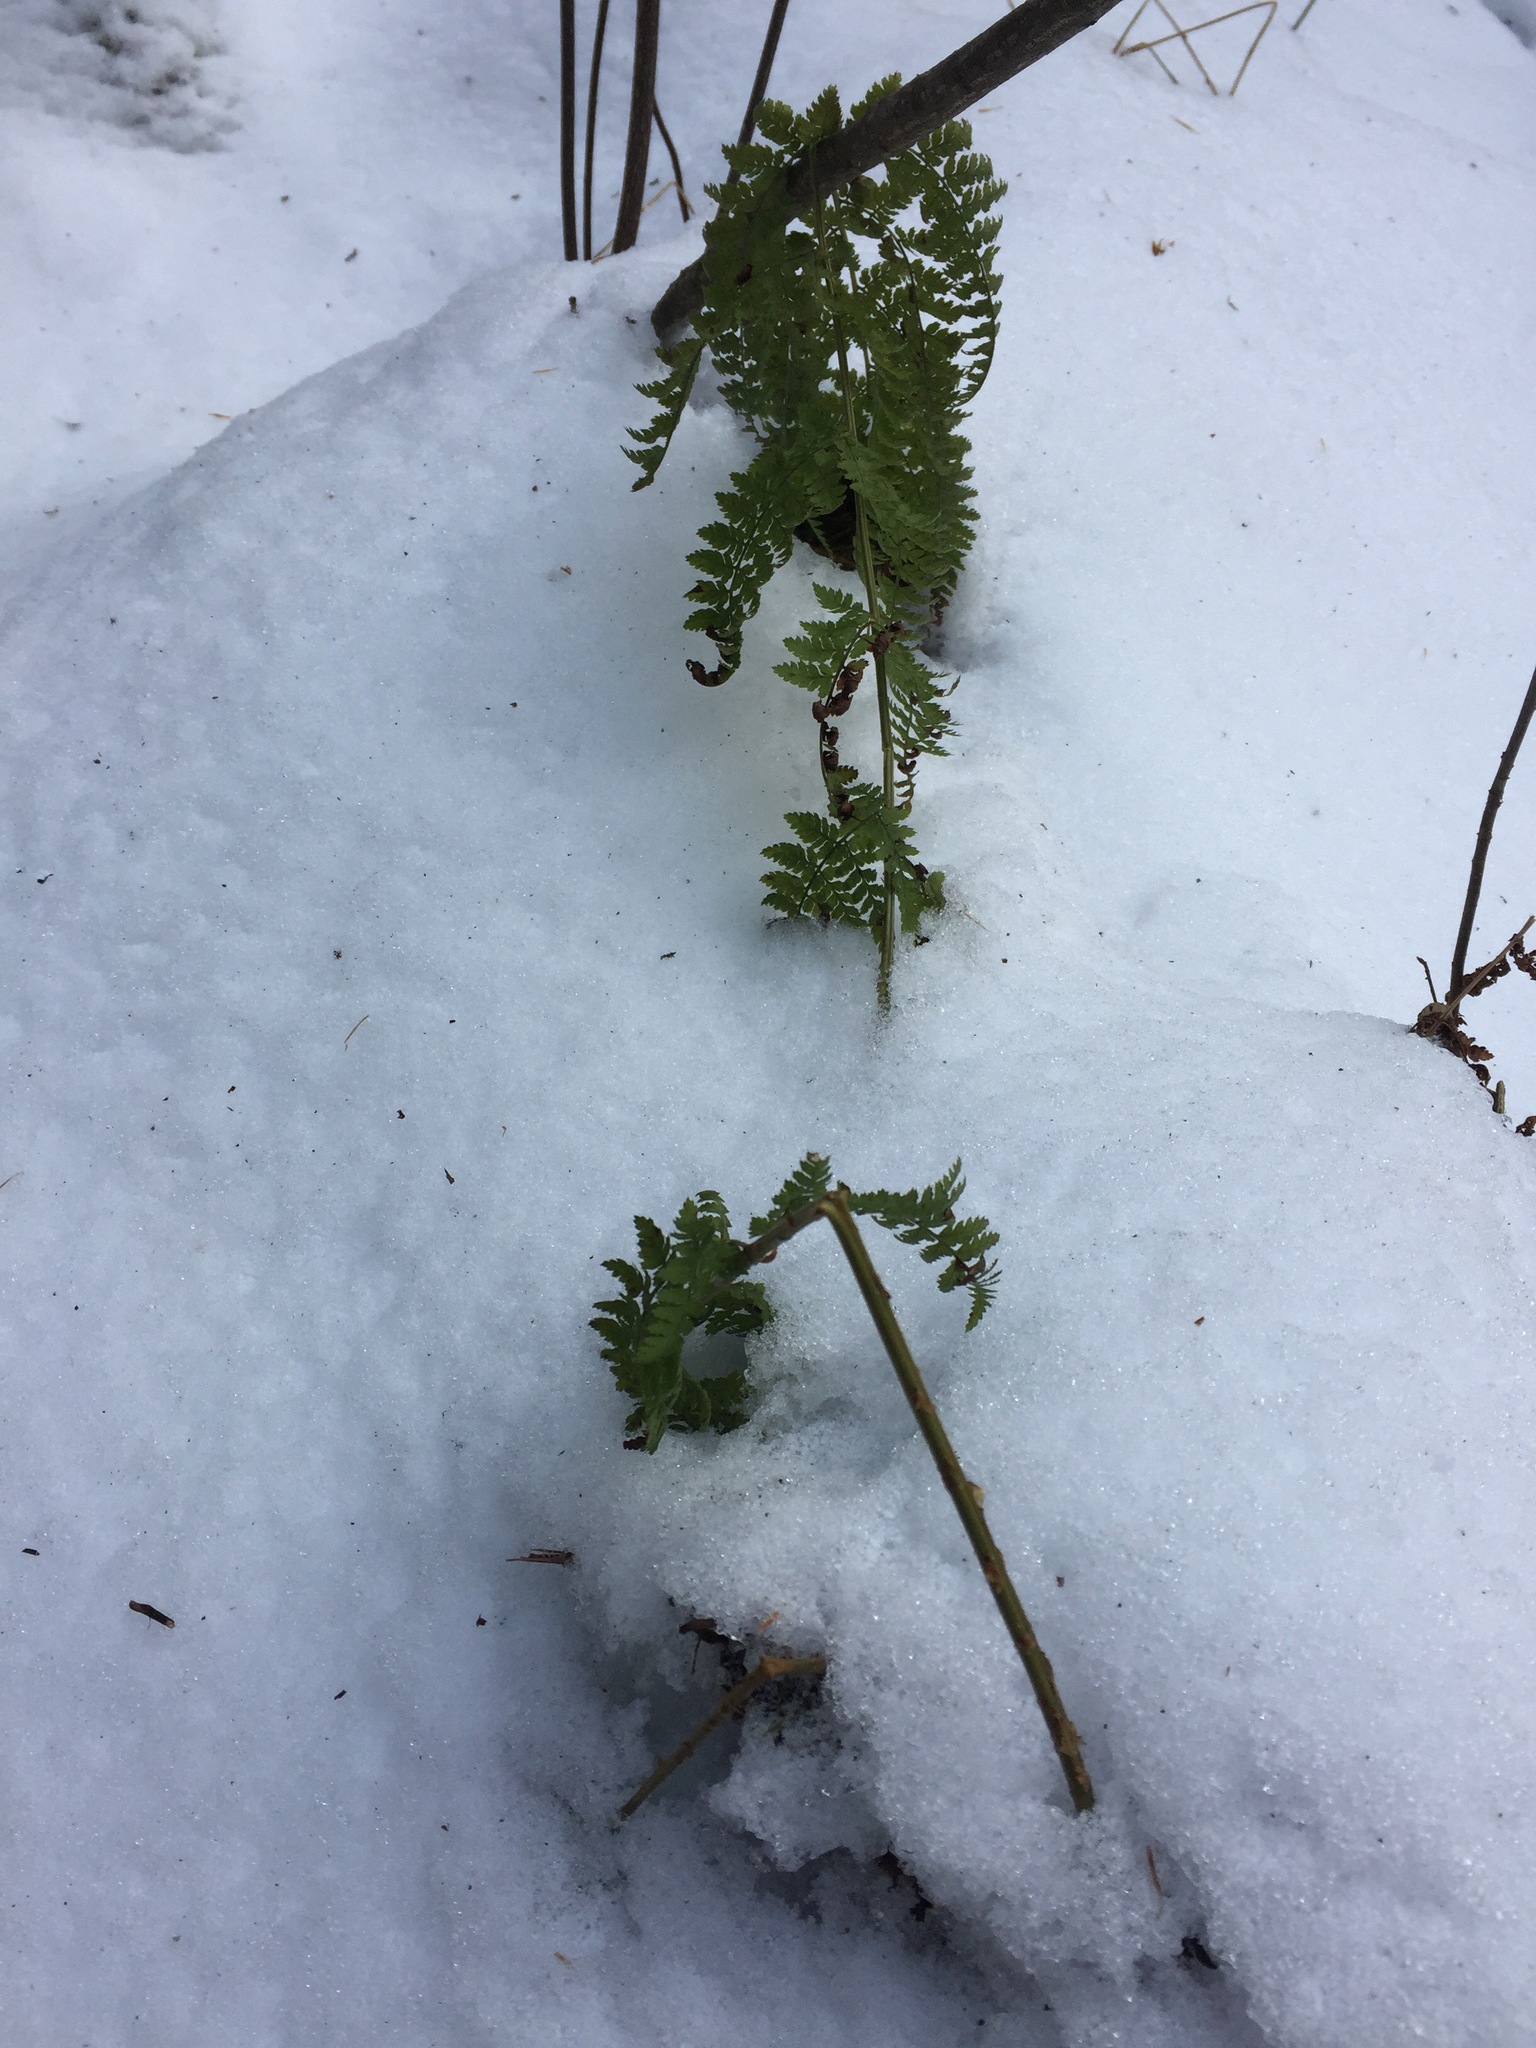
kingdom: Plantae
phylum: Tracheophyta
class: Polypodiopsida
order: Polypodiales
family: Dryopteridaceae
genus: Dryopteris
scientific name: Dryopteris intermedia
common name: Evergreen wood fern
